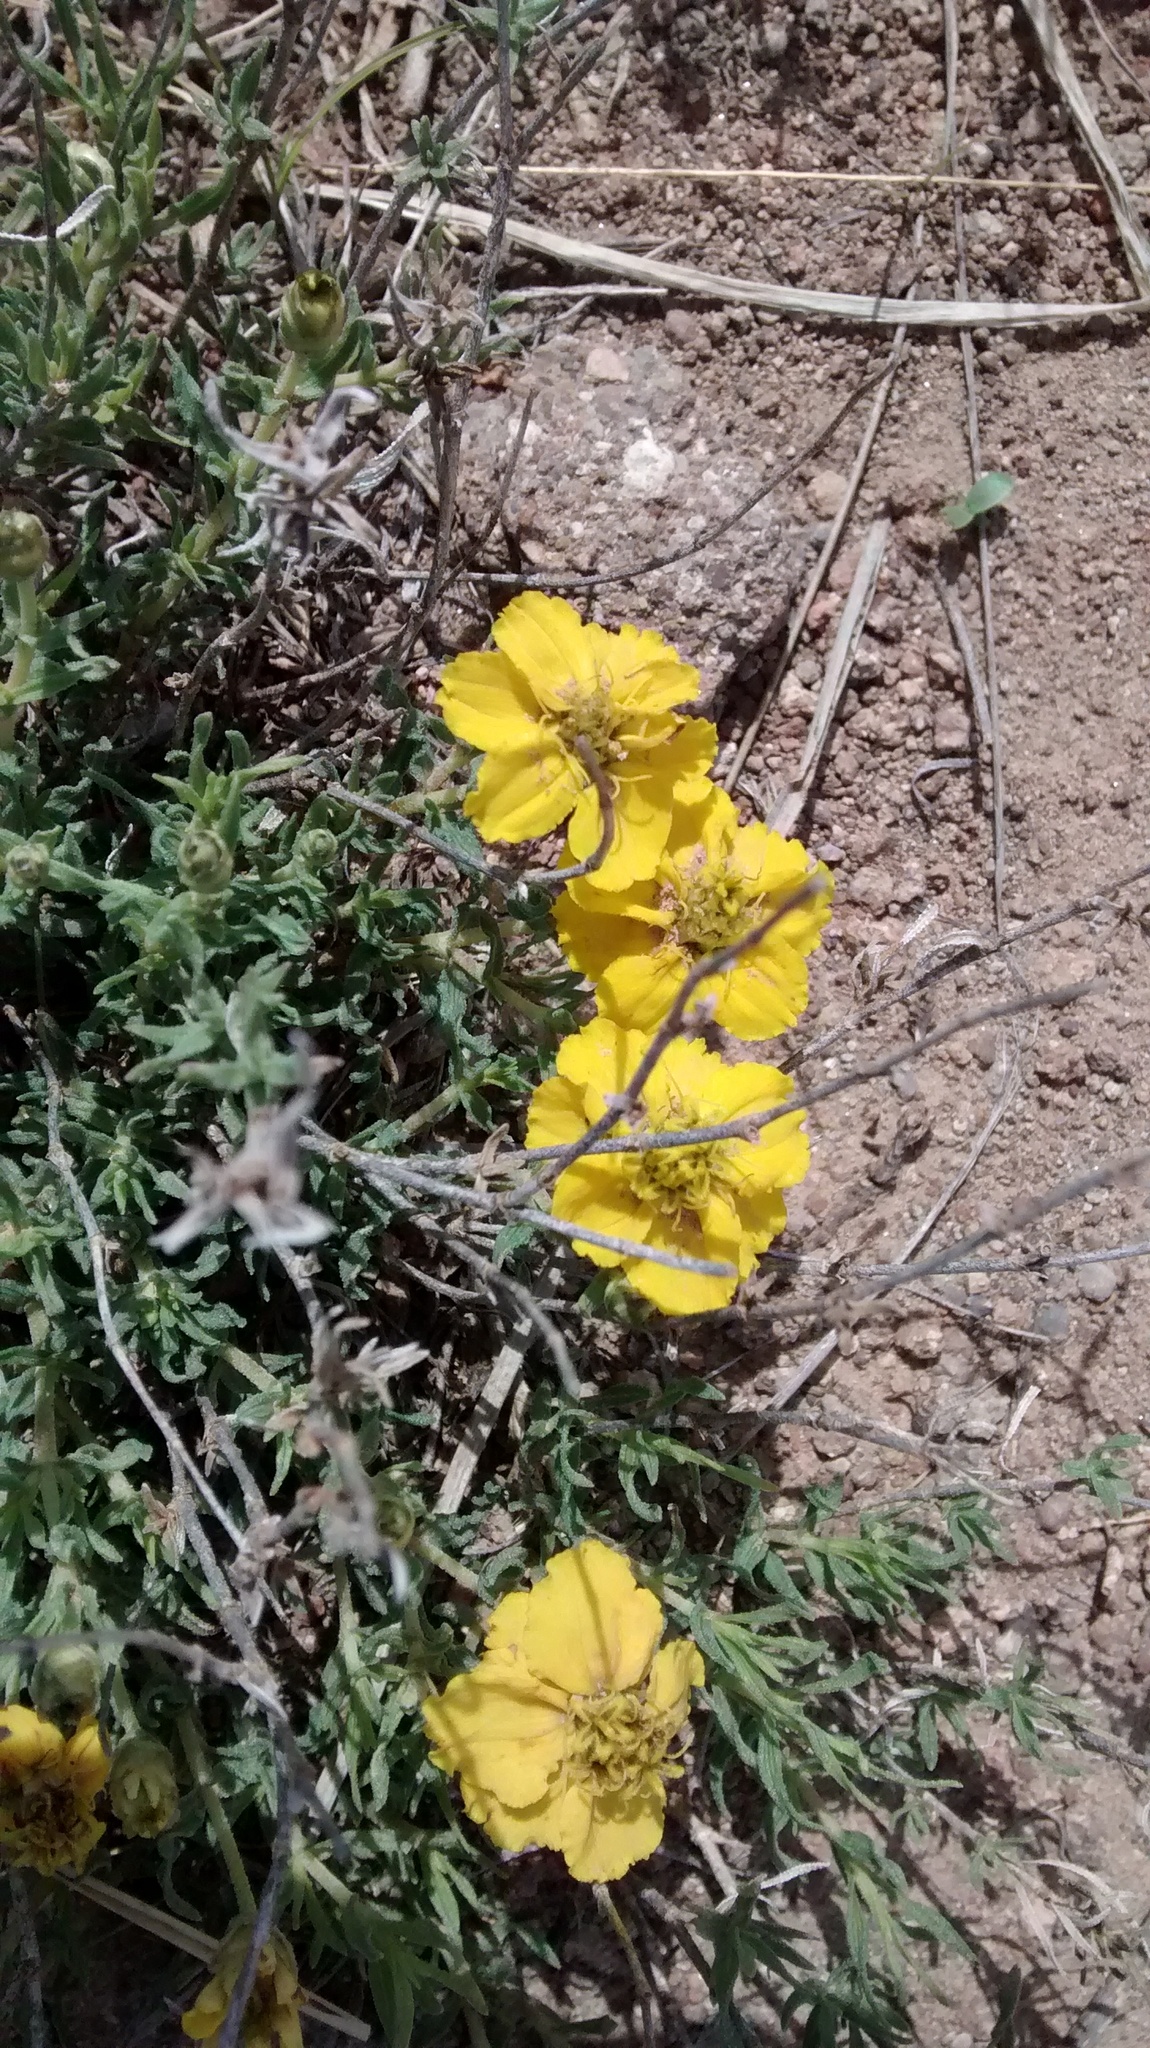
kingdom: Plantae
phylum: Tracheophyta
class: Magnoliopsida
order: Asterales
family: Asteraceae
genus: Zinnia
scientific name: Zinnia grandiflora
